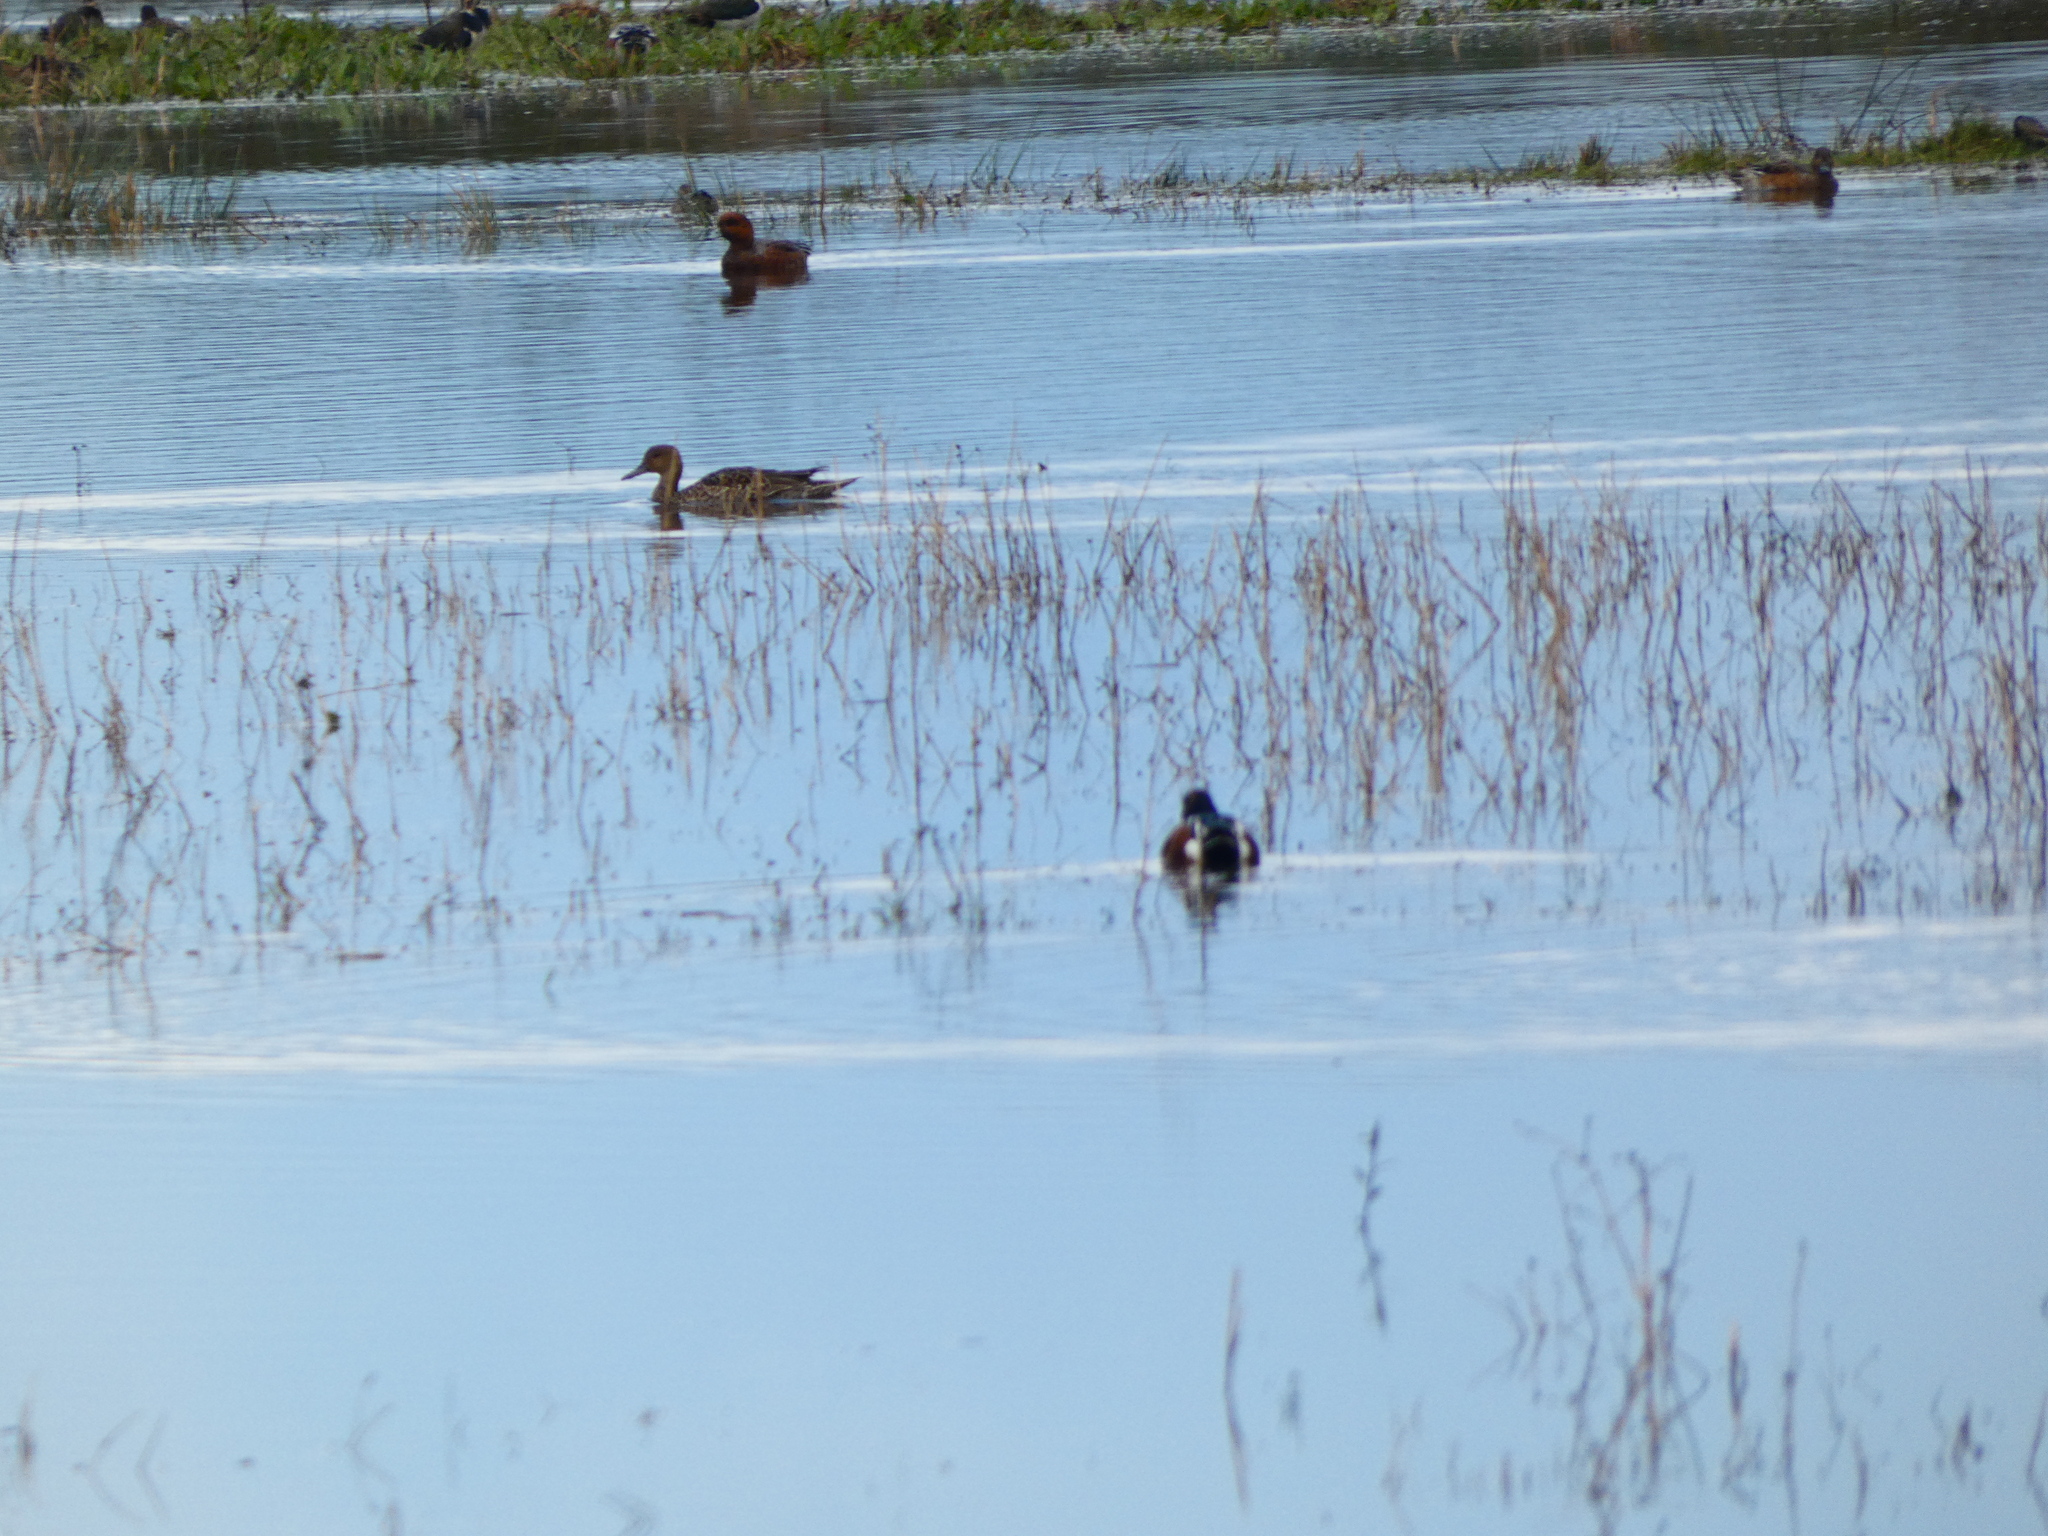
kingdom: Animalia
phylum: Chordata
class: Aves
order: Anseriformes
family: Anatidae
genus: Anas
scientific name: Anas acuta
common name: Northern pintail
